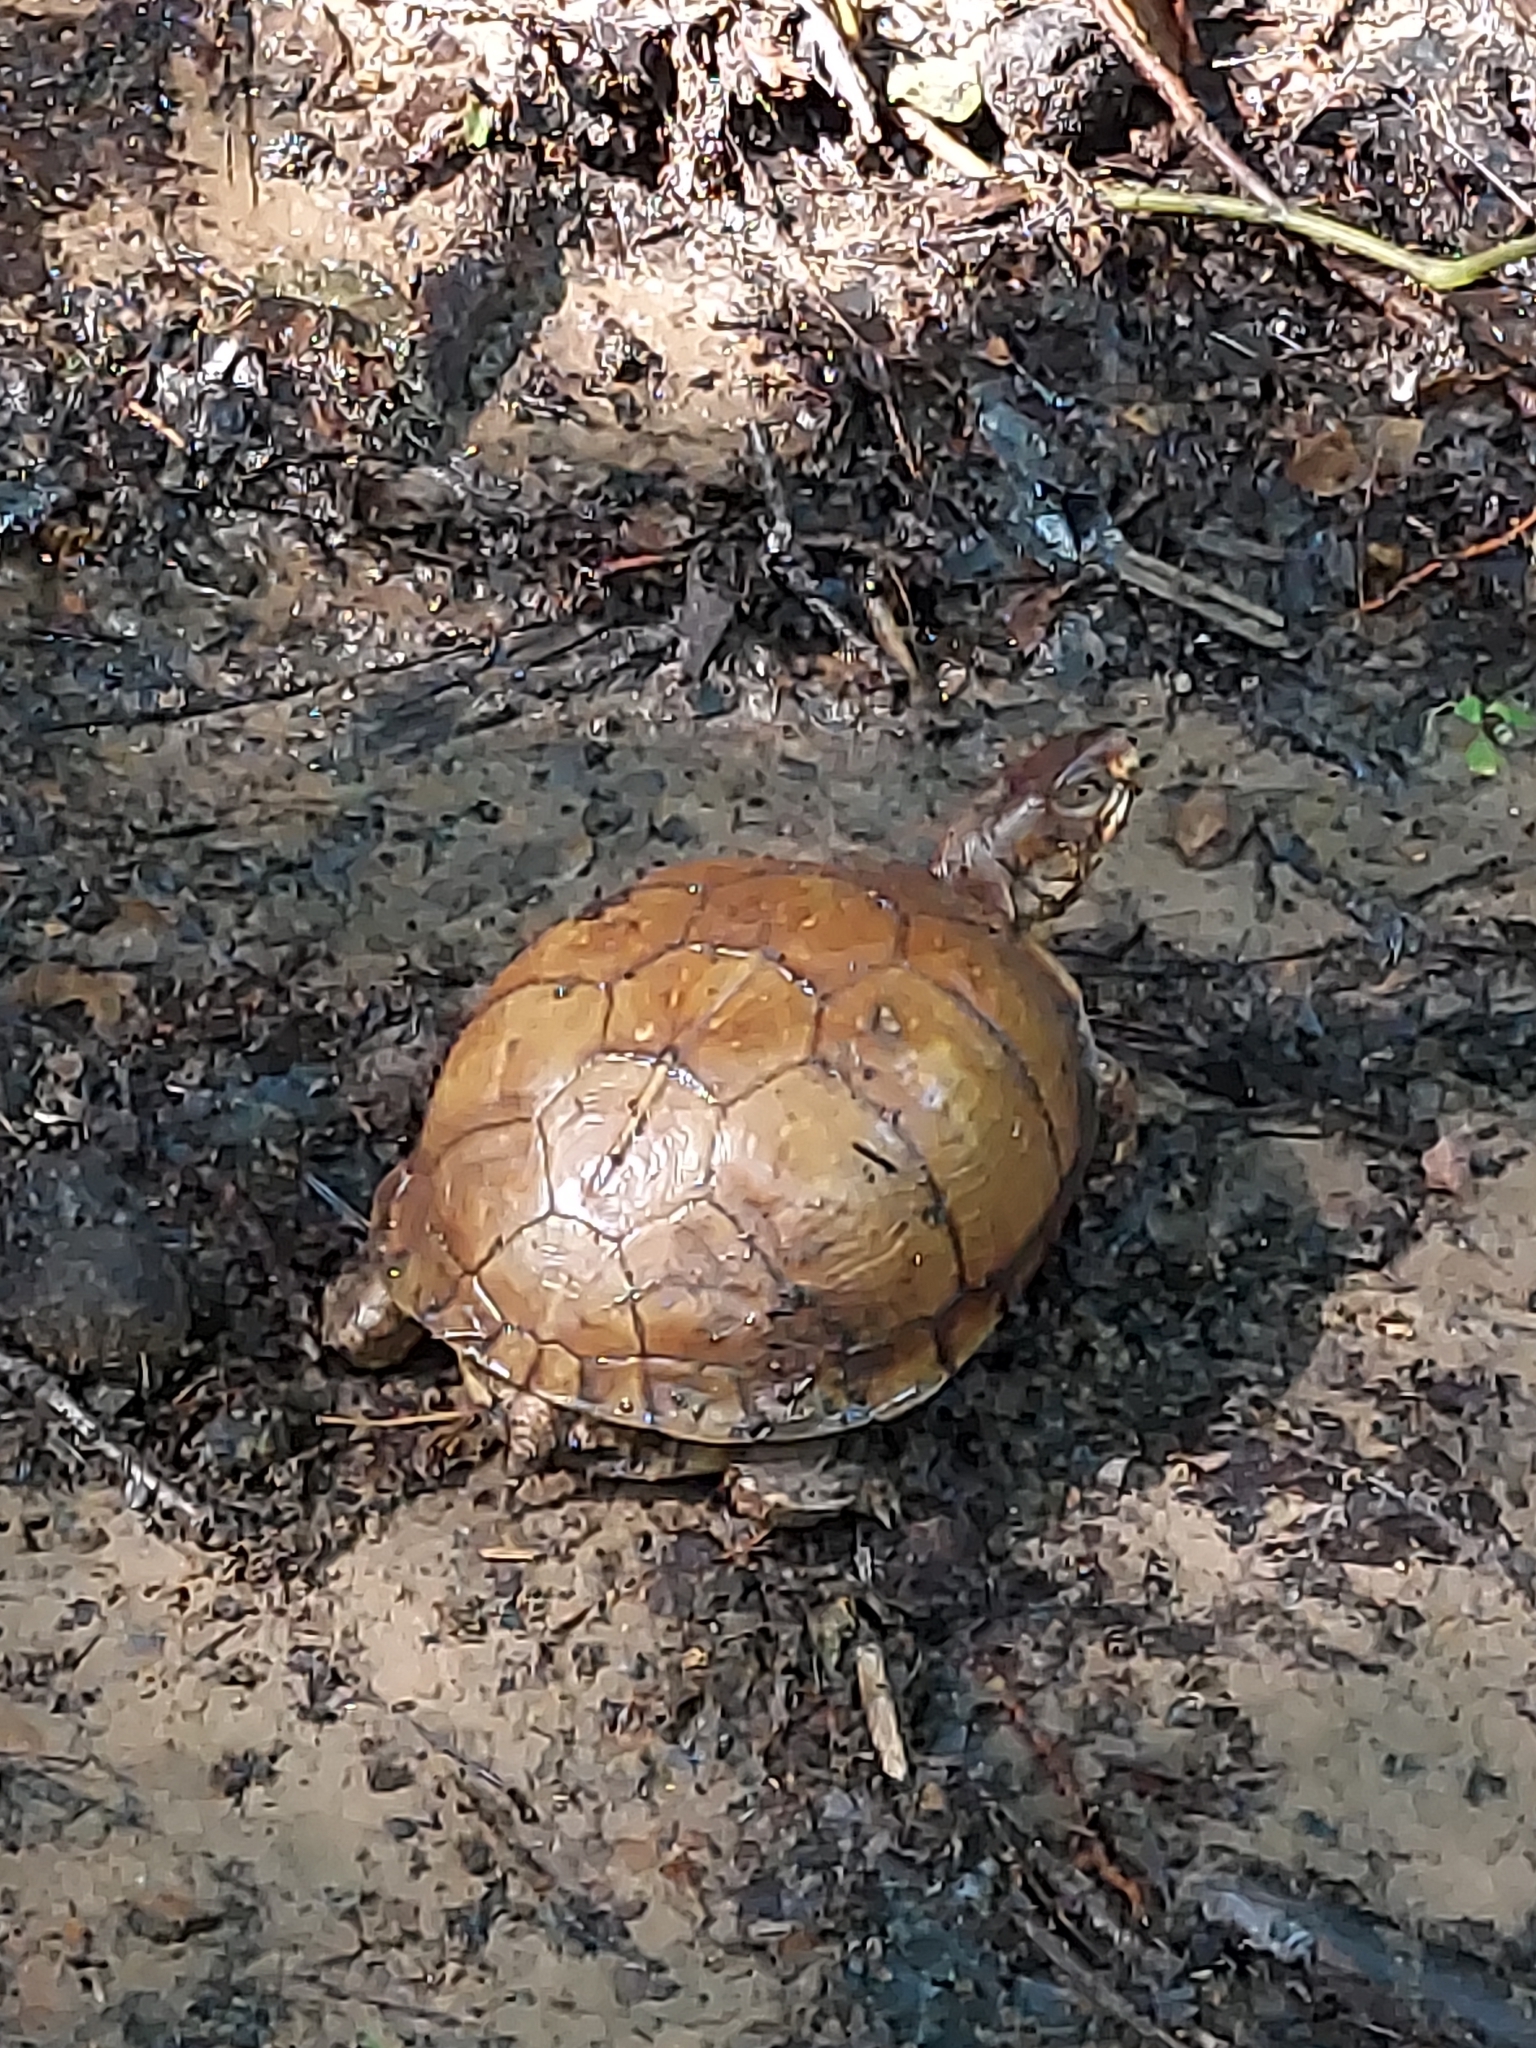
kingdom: Animalia
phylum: Chordata
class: Testudines
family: Emydidae
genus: Terrapene
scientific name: Terrapene carolina
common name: Common box turtle
